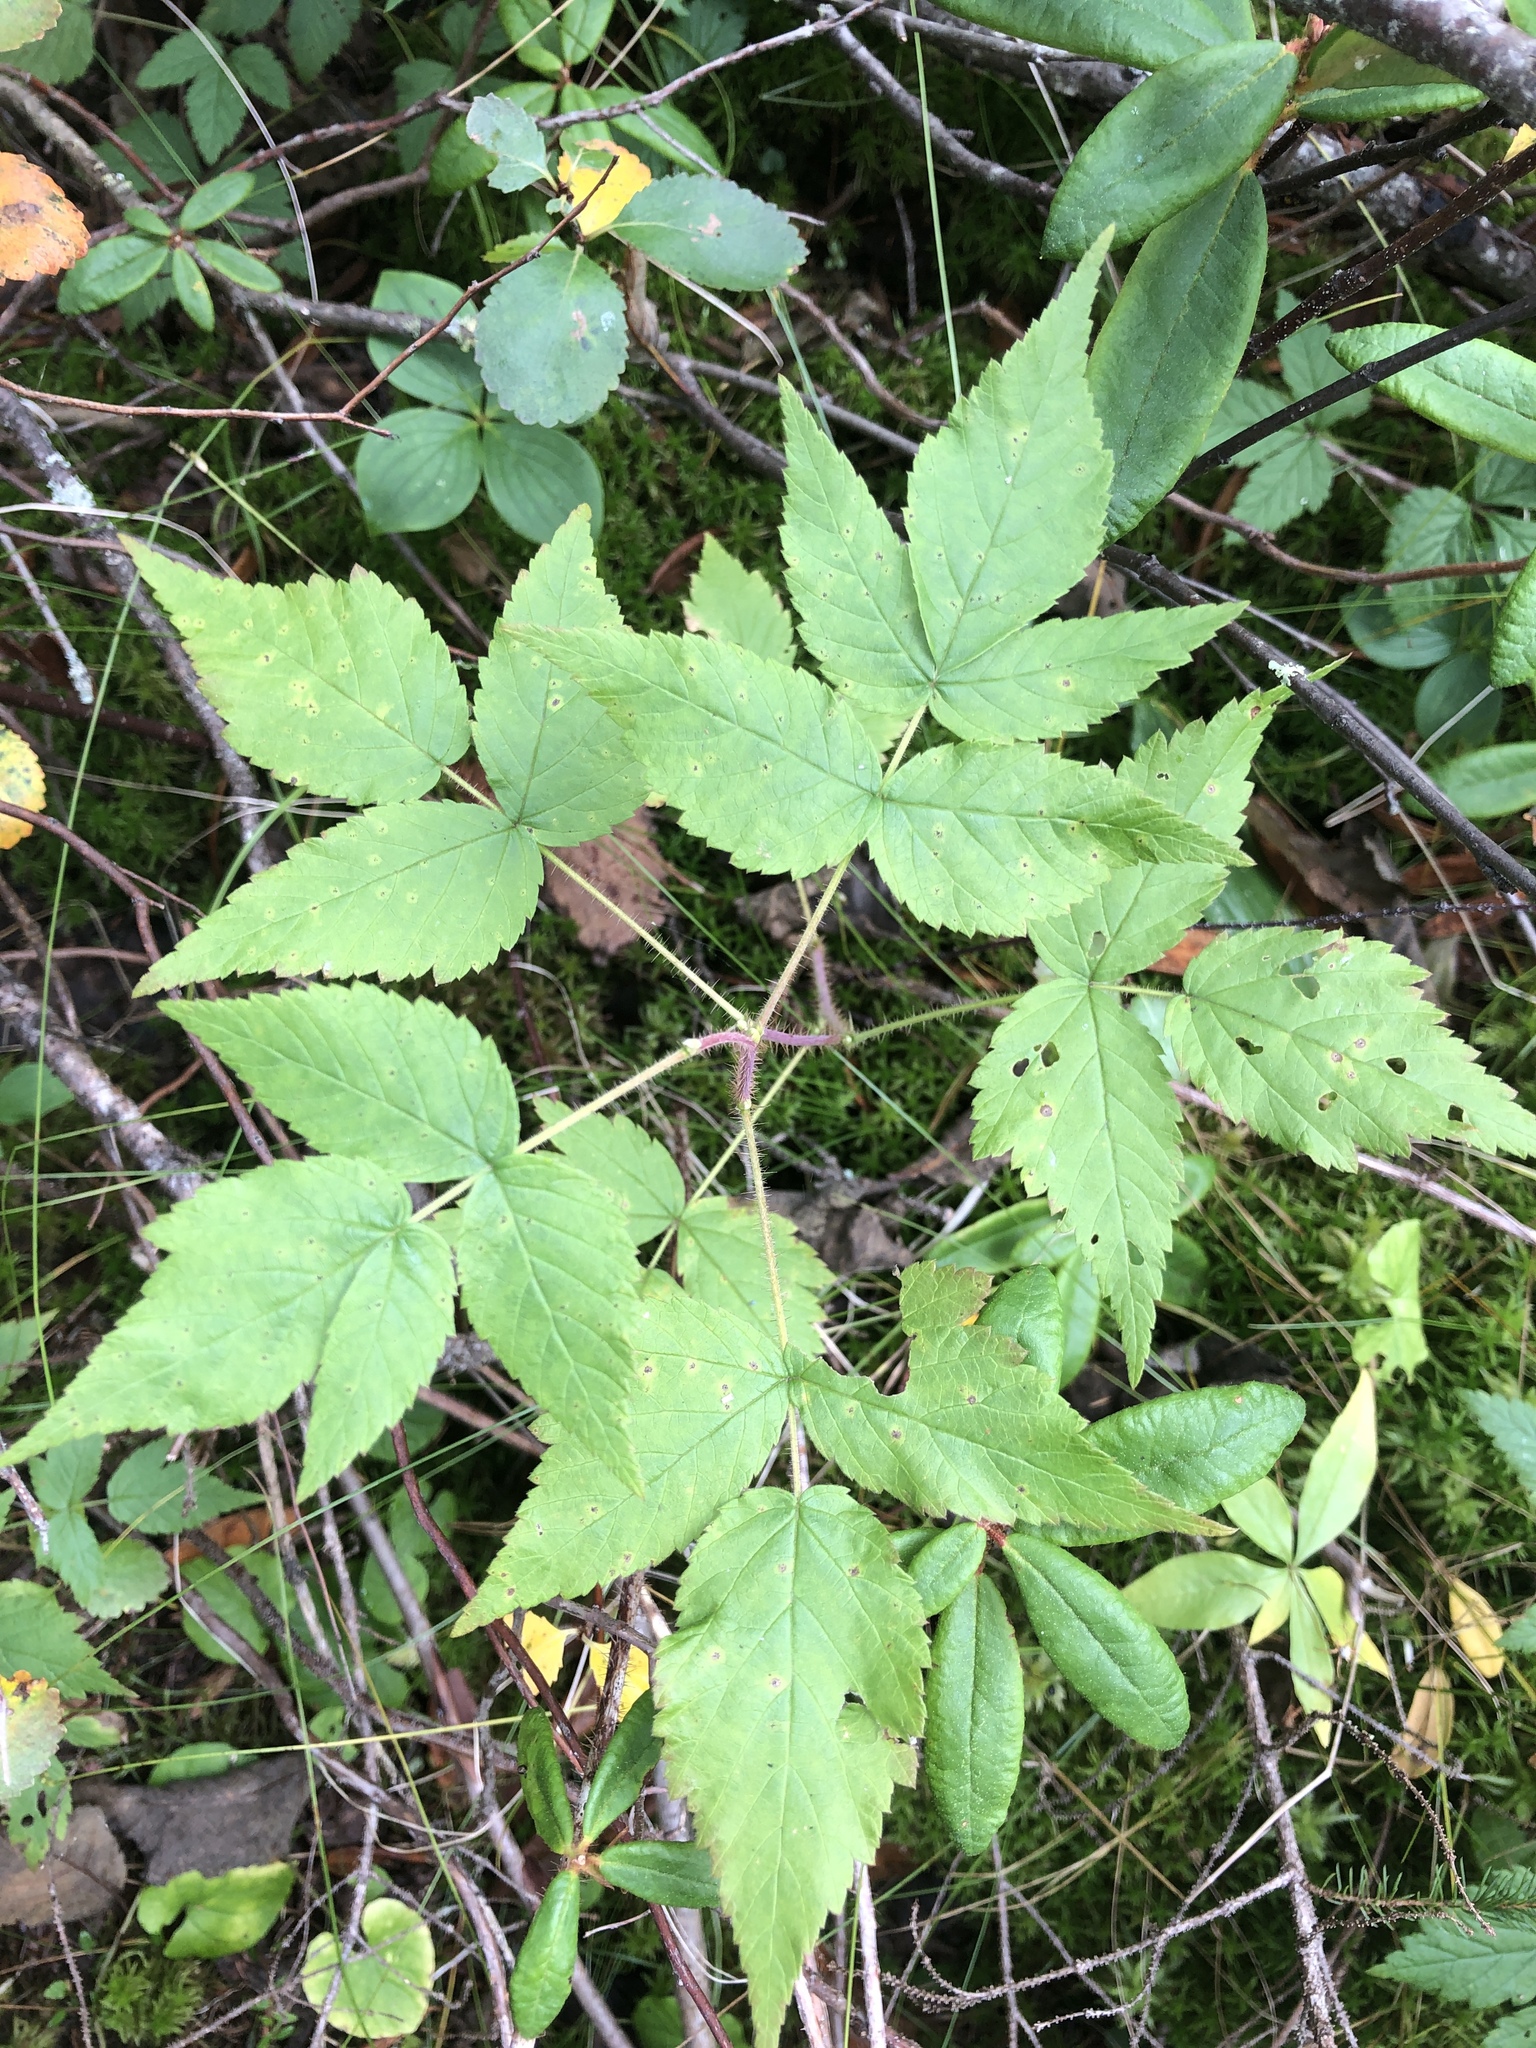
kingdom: Plantae
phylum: Tracheophyta
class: Magnoliopsida
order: Rosales
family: Rosaceae
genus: Rubus
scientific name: Rubus idaeus
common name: Raspberry
